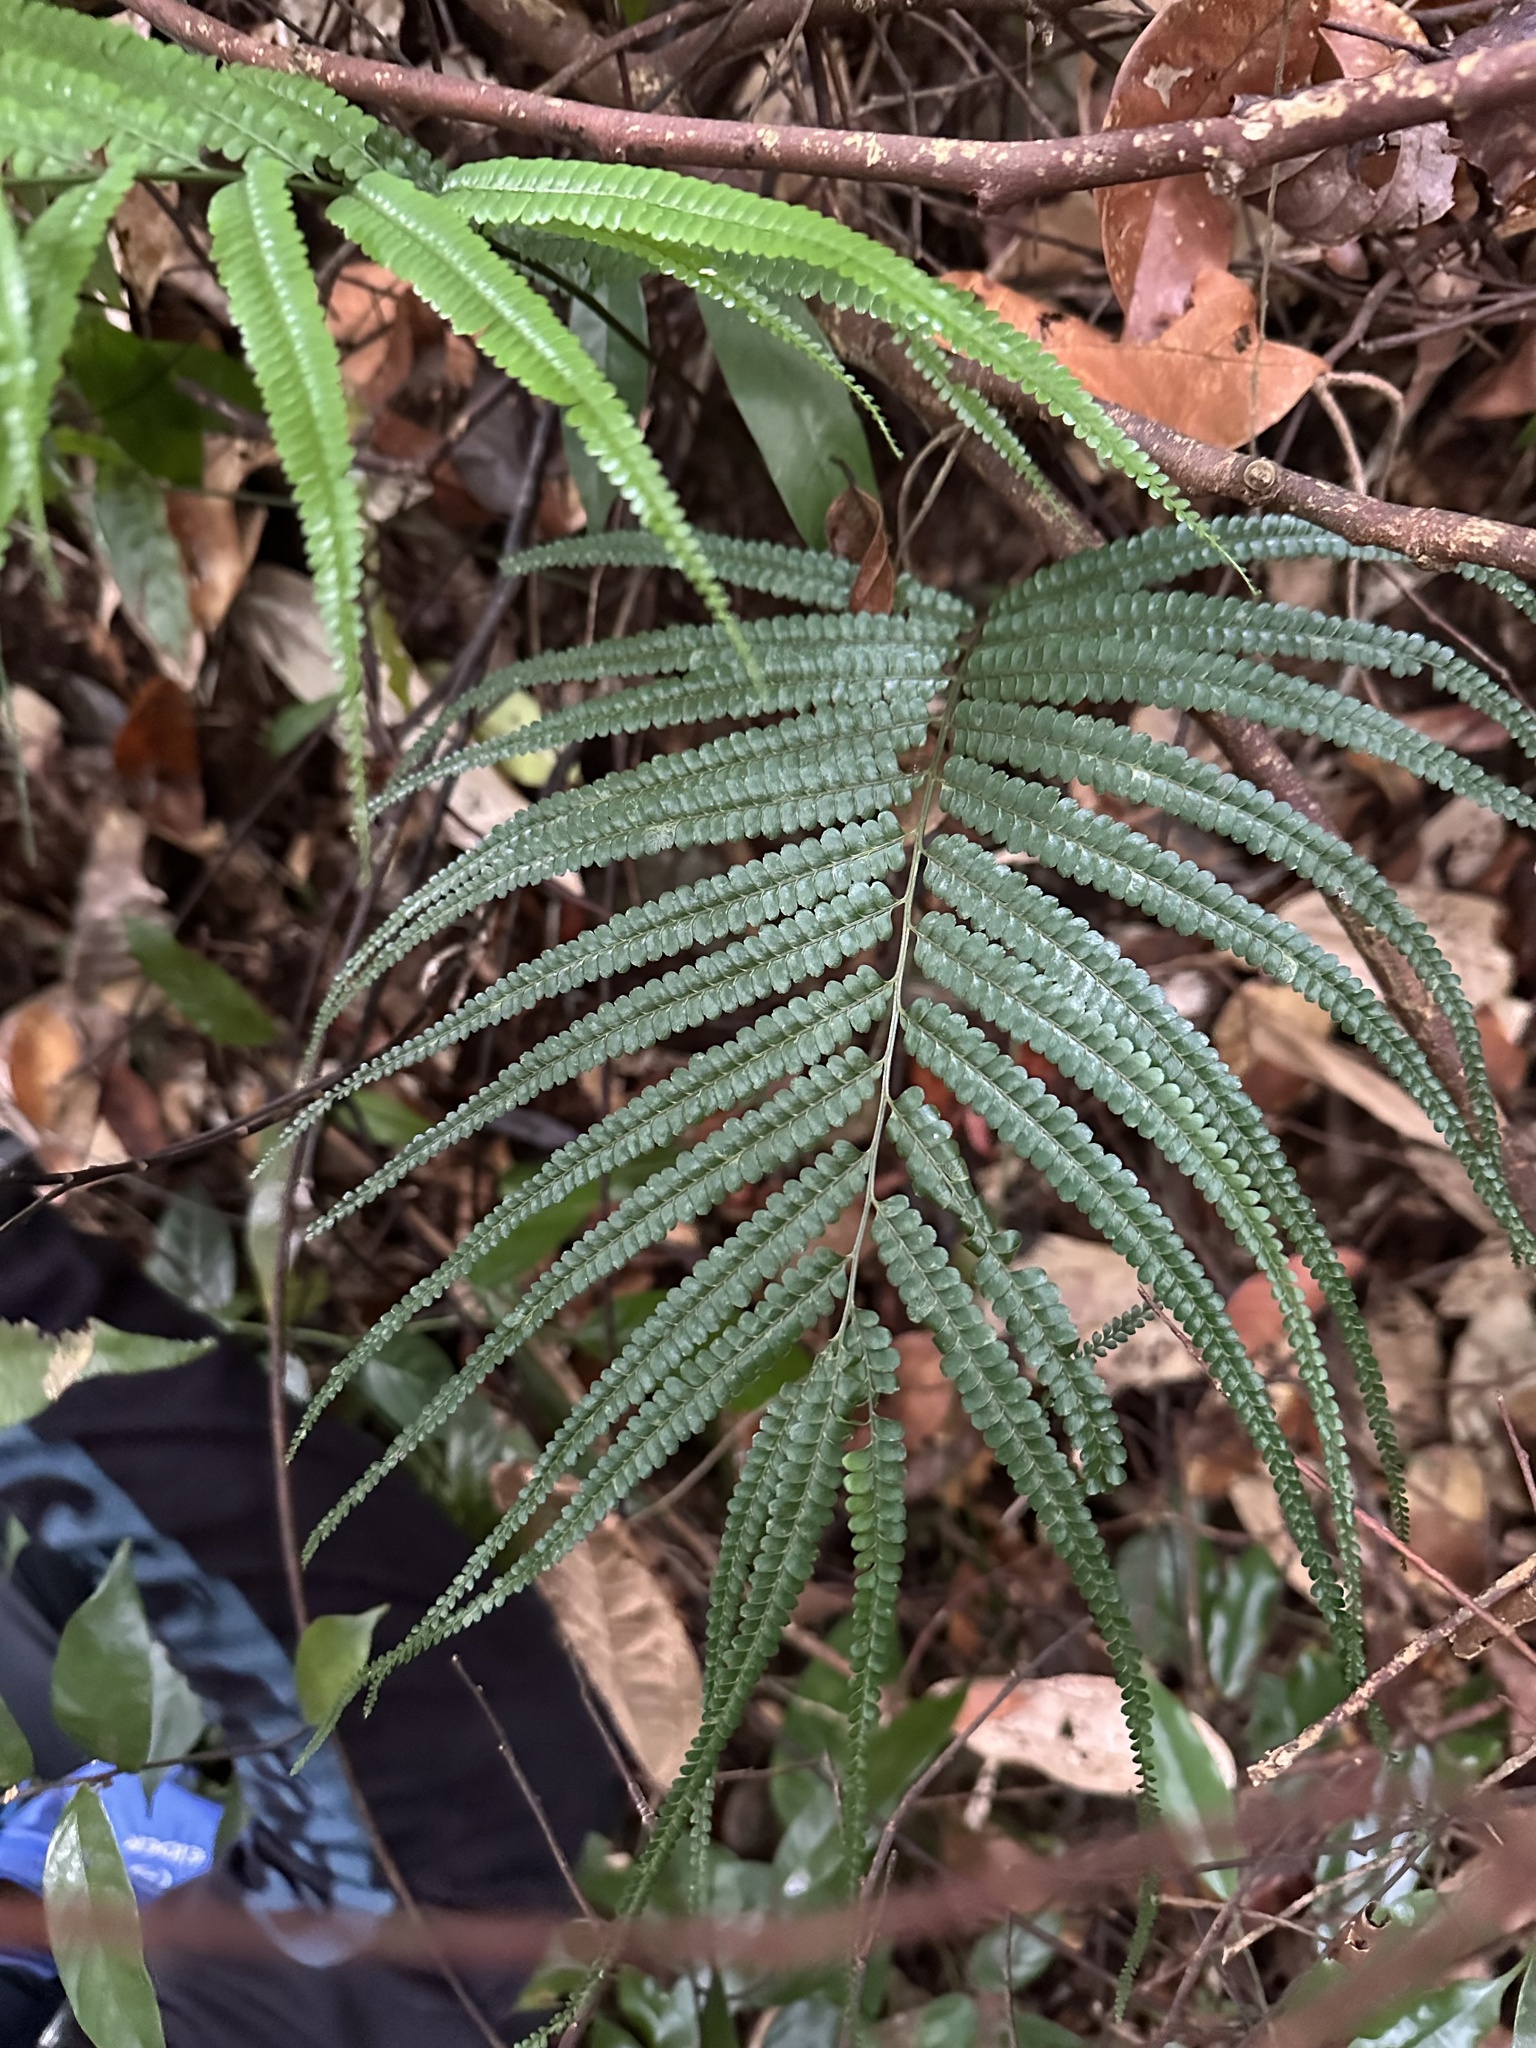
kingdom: Plantae
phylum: Tracheophyta
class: Polypodiopsida
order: Polypodiales
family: Lindsaeaceae
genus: Lindsaea
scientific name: Lindsaea borneensis
